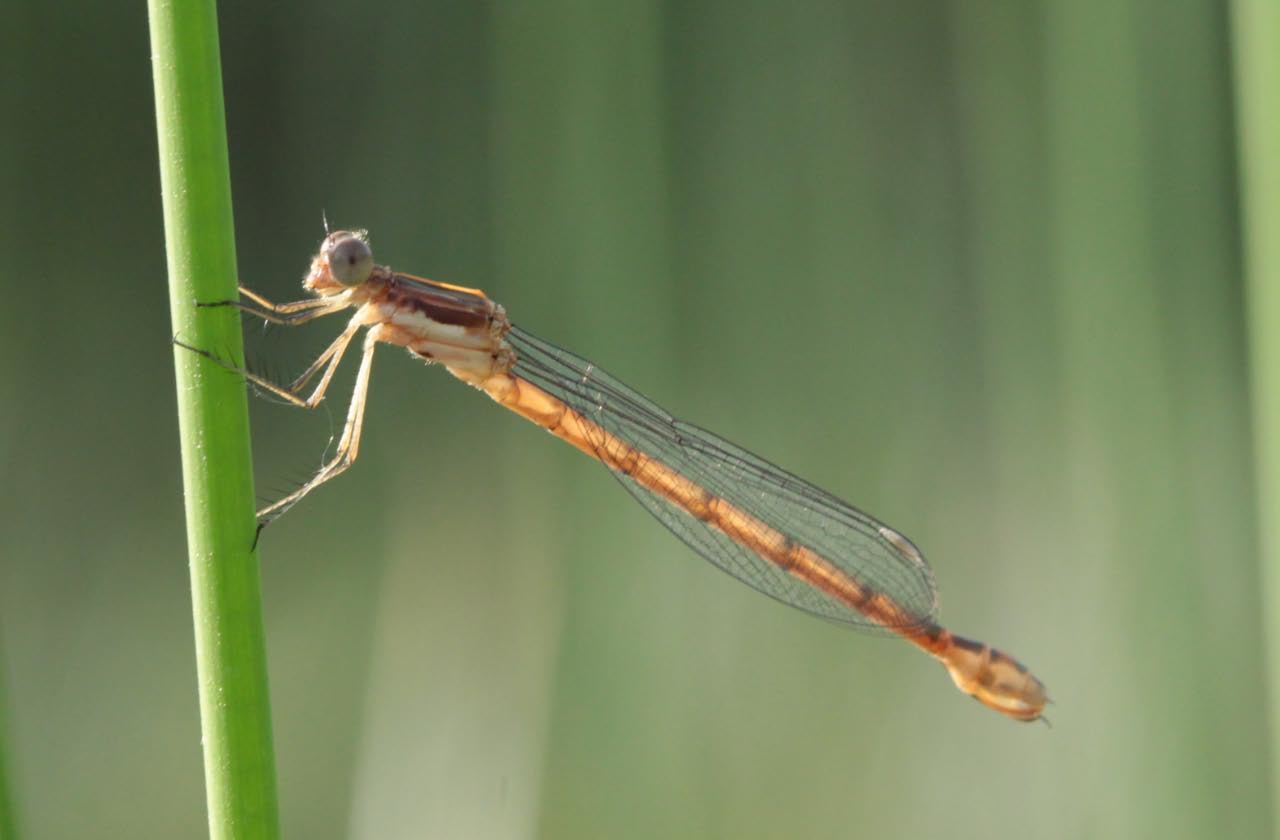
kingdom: Animalia
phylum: Arthropoda
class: Insecta
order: Odonata
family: Lestidae
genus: Lestes
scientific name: Lestes forcipatus
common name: Sweetflag spreadwing
